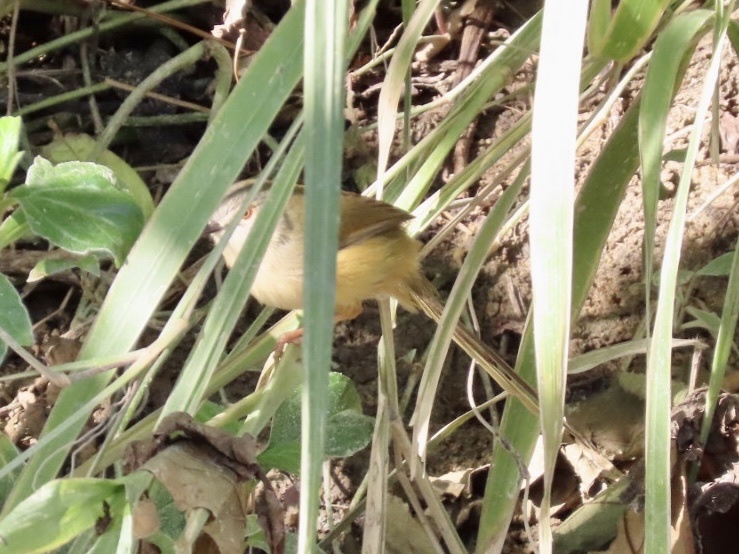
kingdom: Animalia
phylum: Chordata
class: Aves
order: Passeriformes
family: Cisticolidae
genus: Prinia
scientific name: Prinia flaviventris
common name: Yellow-bellied prinia
